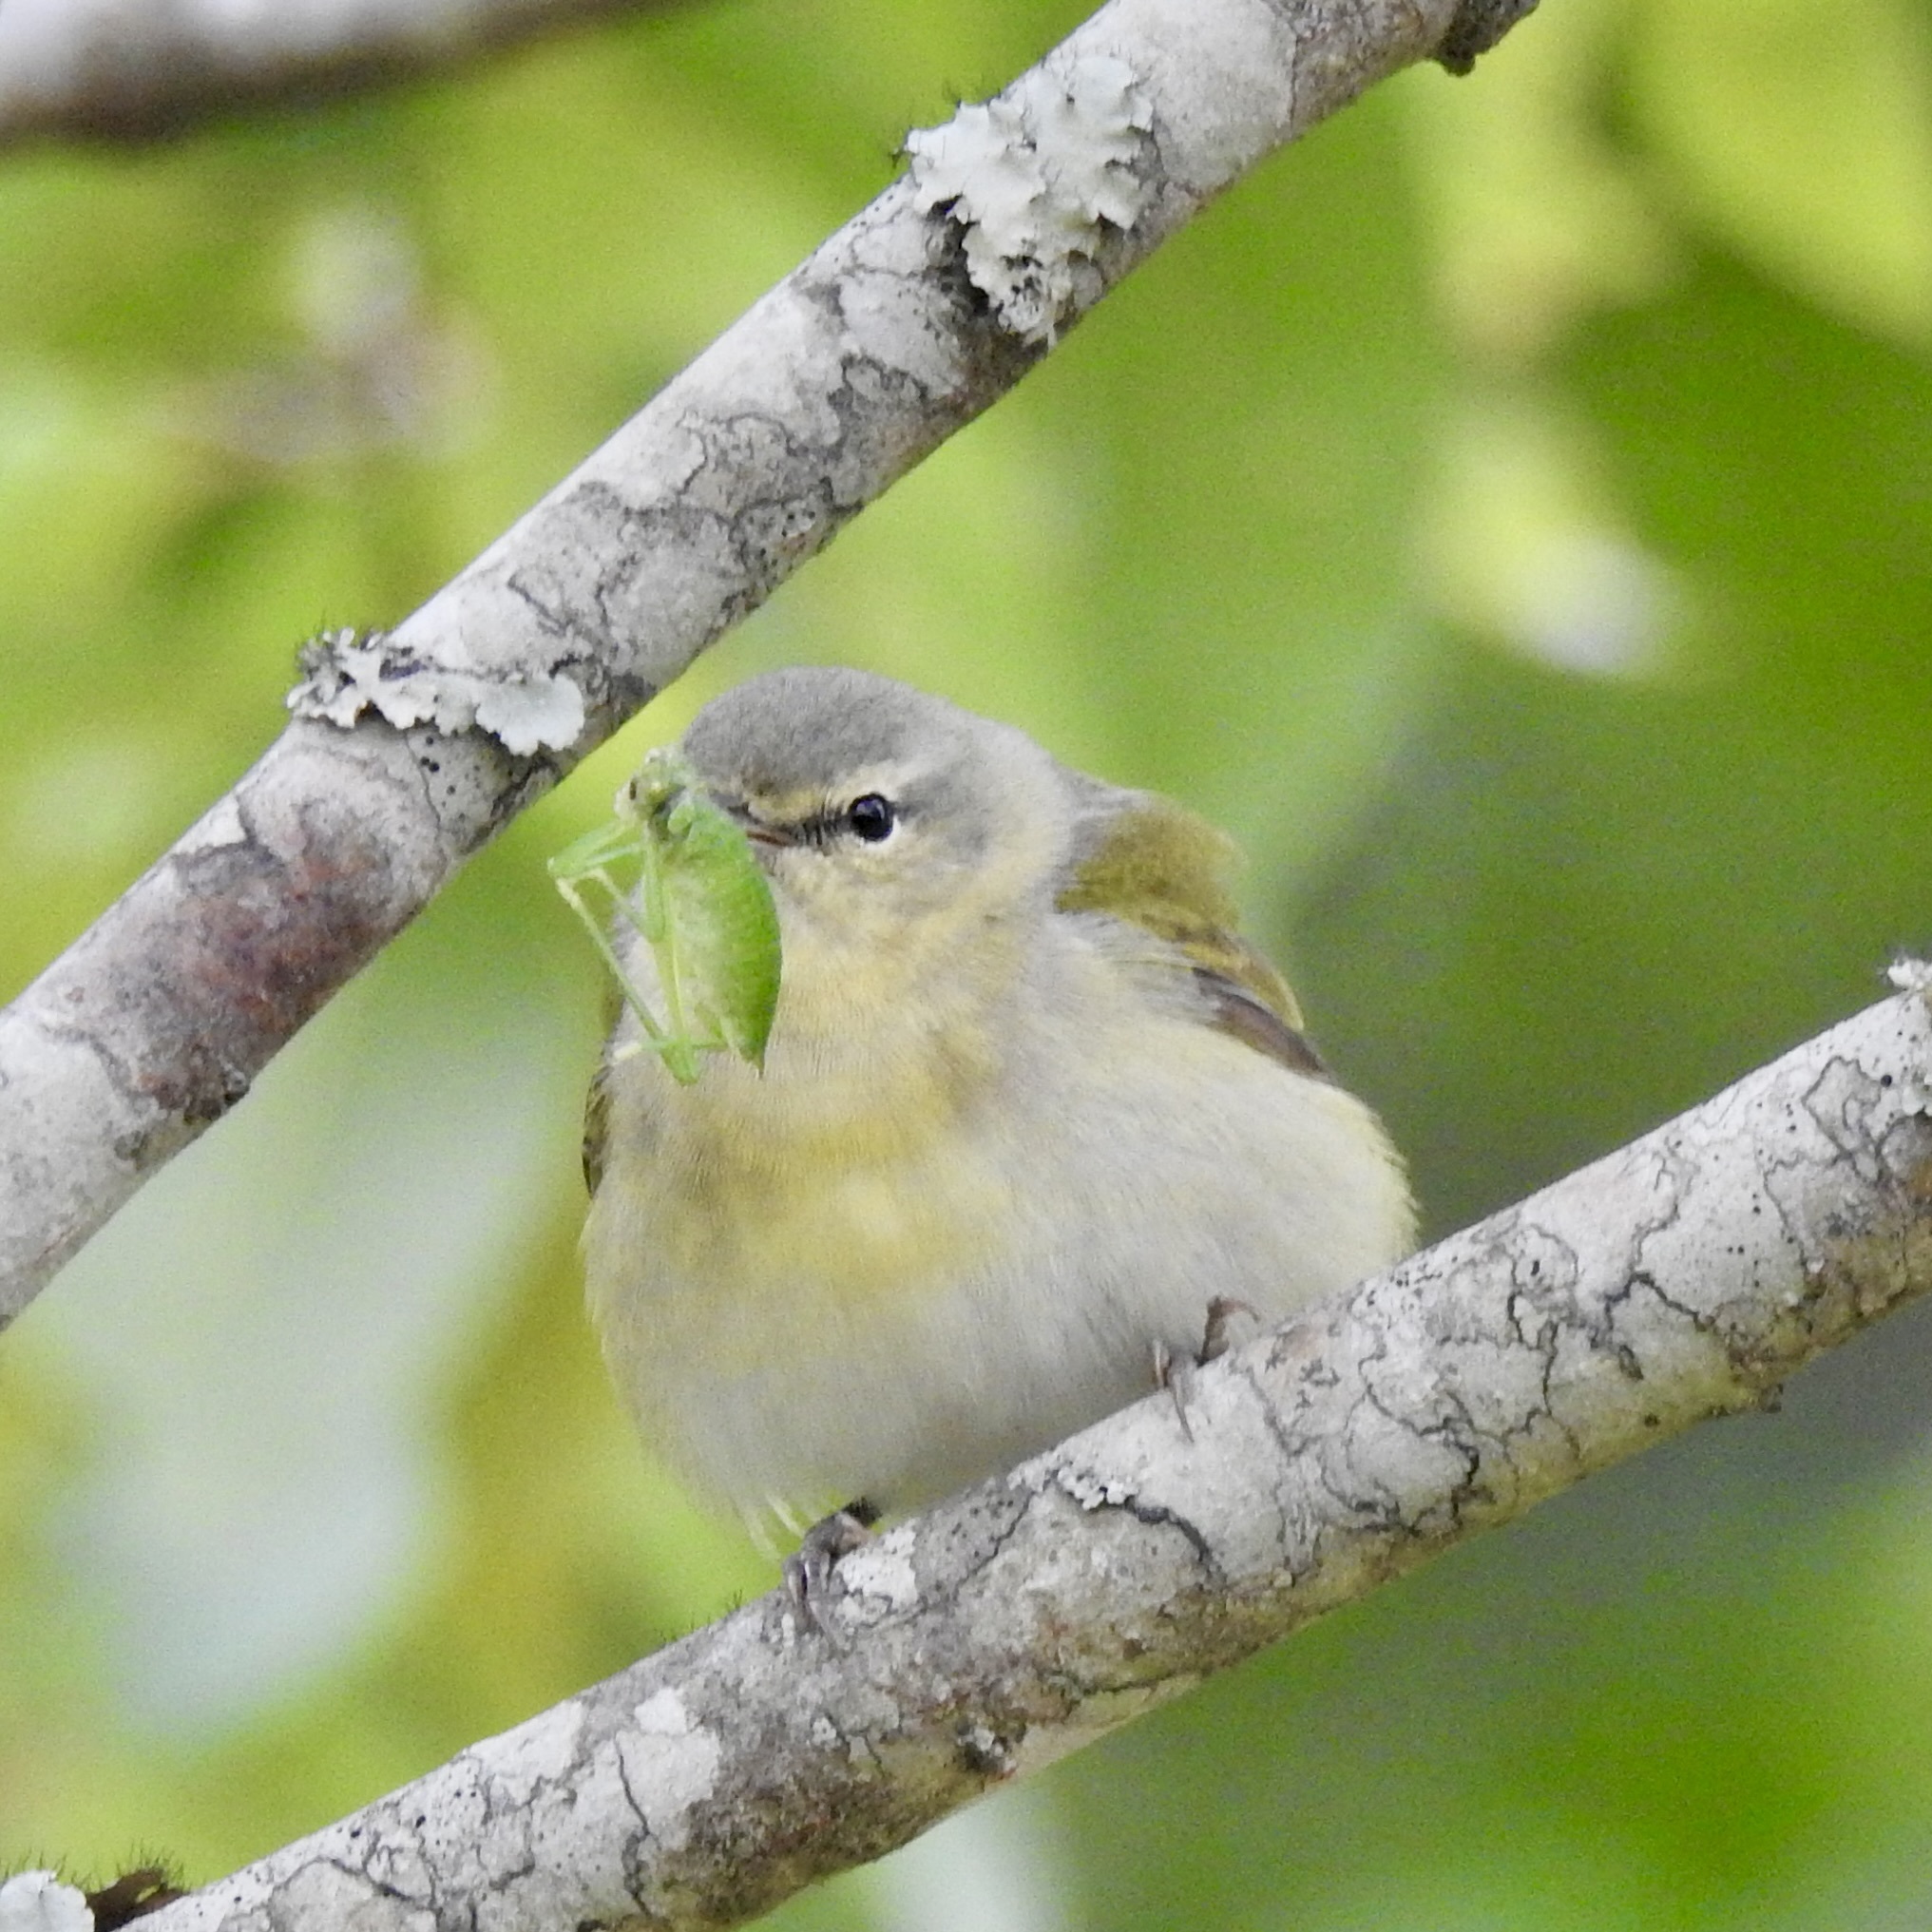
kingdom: Animalia
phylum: Chordata
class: Aves
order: Passeriformes
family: Parulidae
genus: Leiothlypis
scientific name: Leiothlypis peregrina
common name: Tennessee warbler
